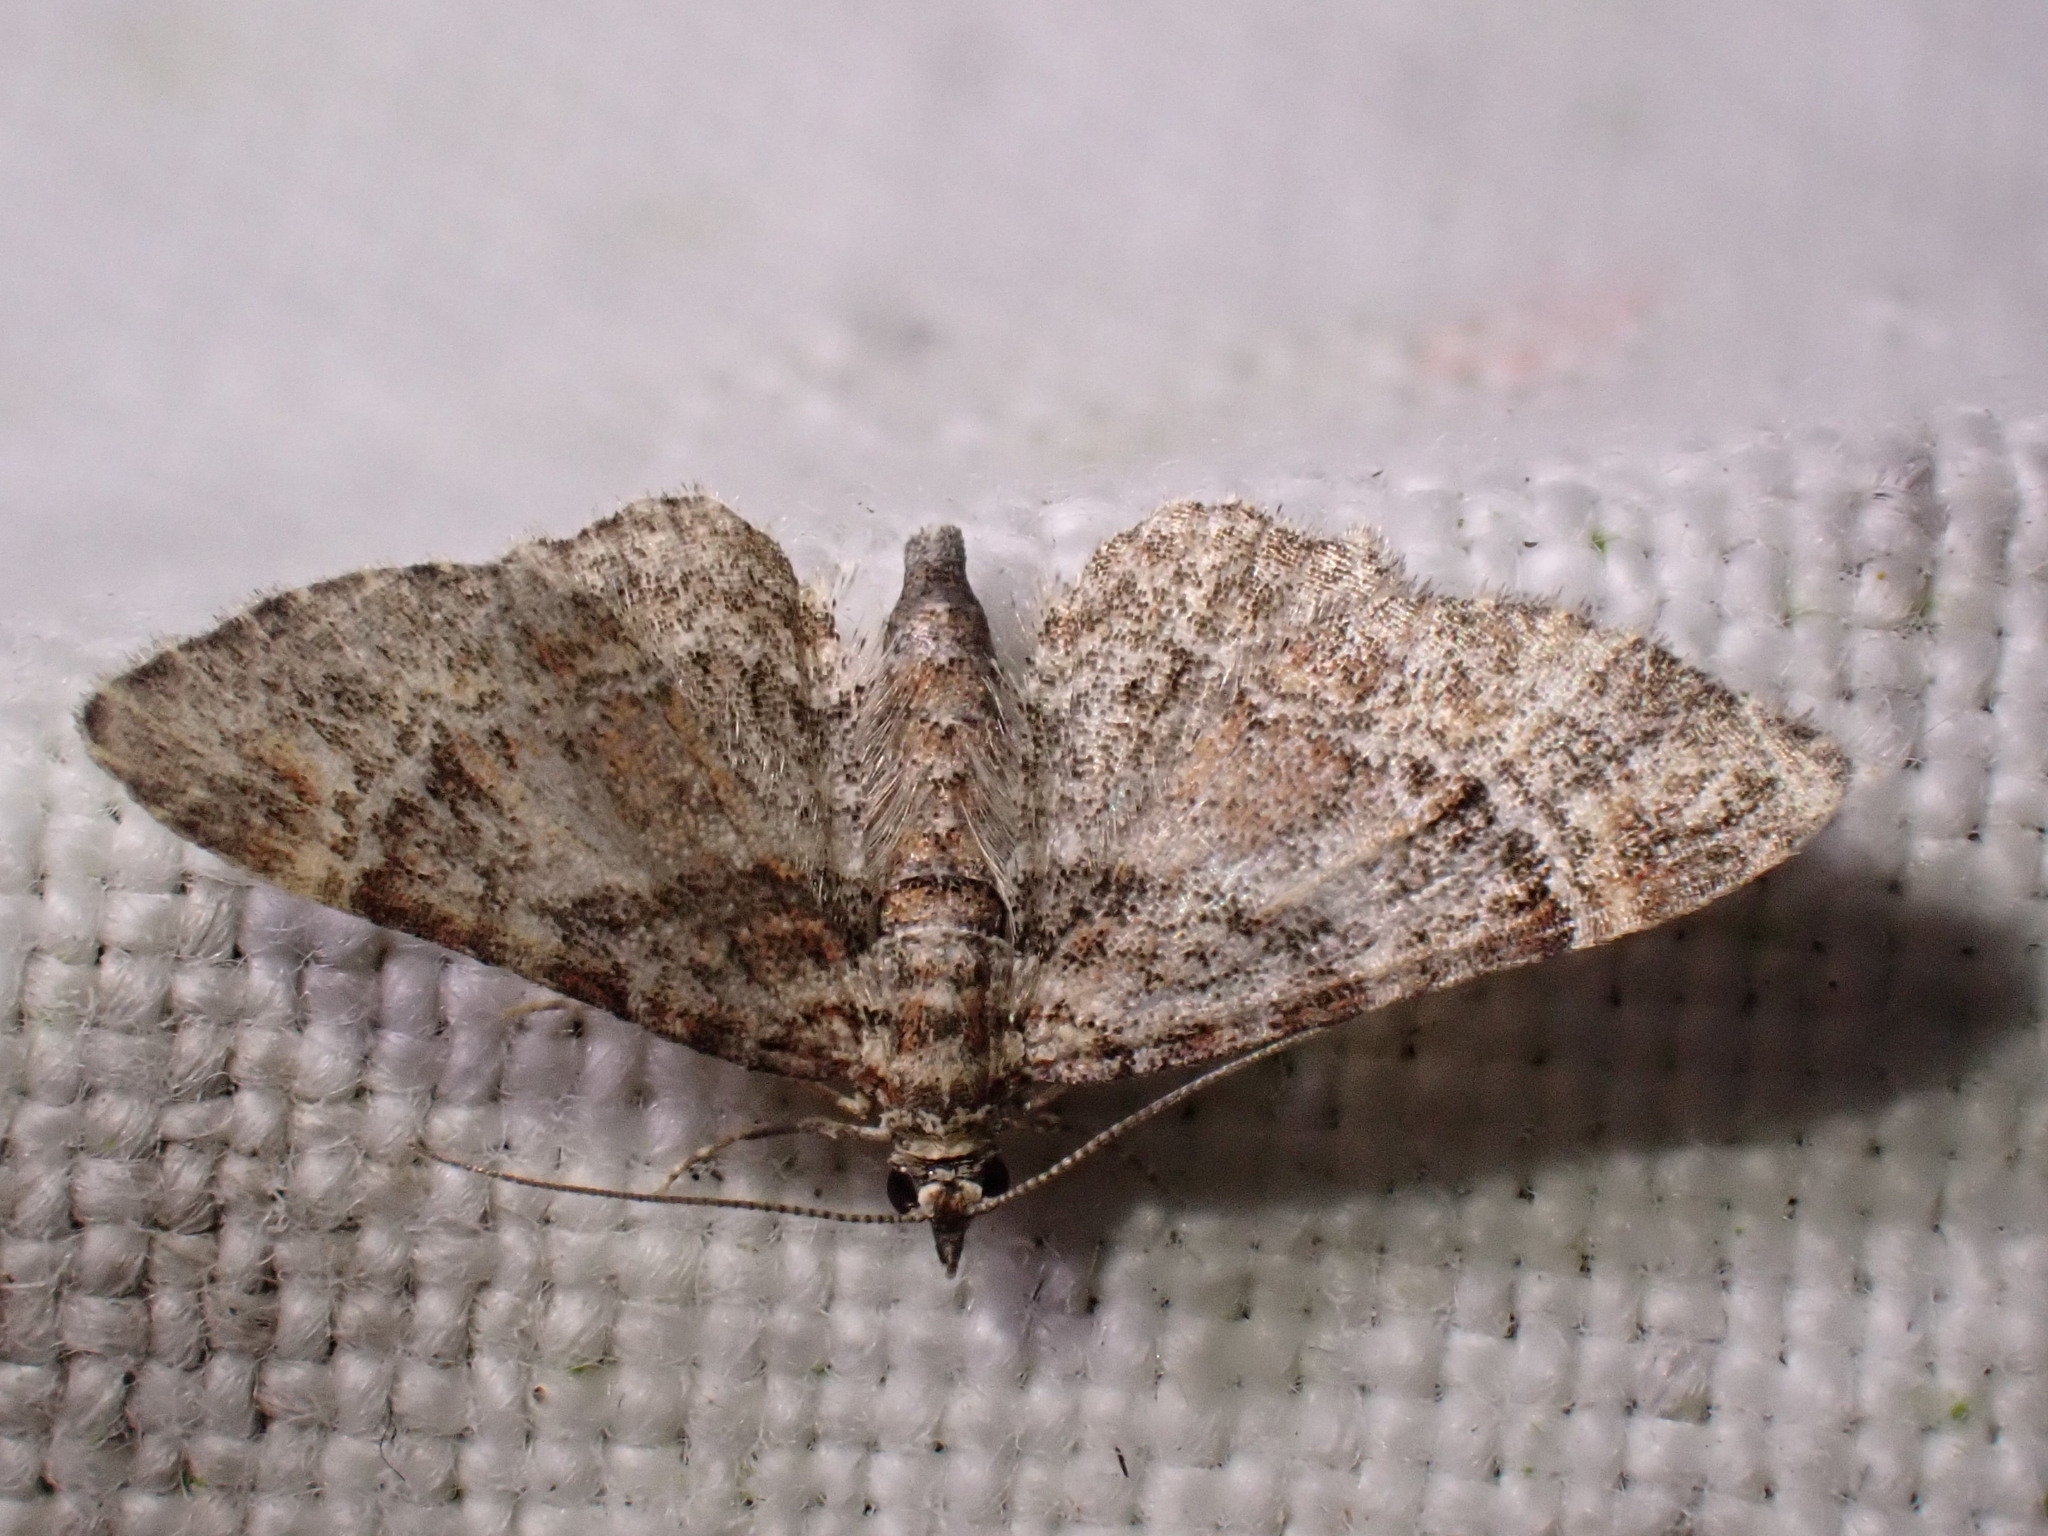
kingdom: Animalia
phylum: Arthropoda
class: Insecta
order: Lepidoptera
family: Geometridae
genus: Gymnoscelis
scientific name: Gymnoscelis rufifasciata
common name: Double-striped pug
